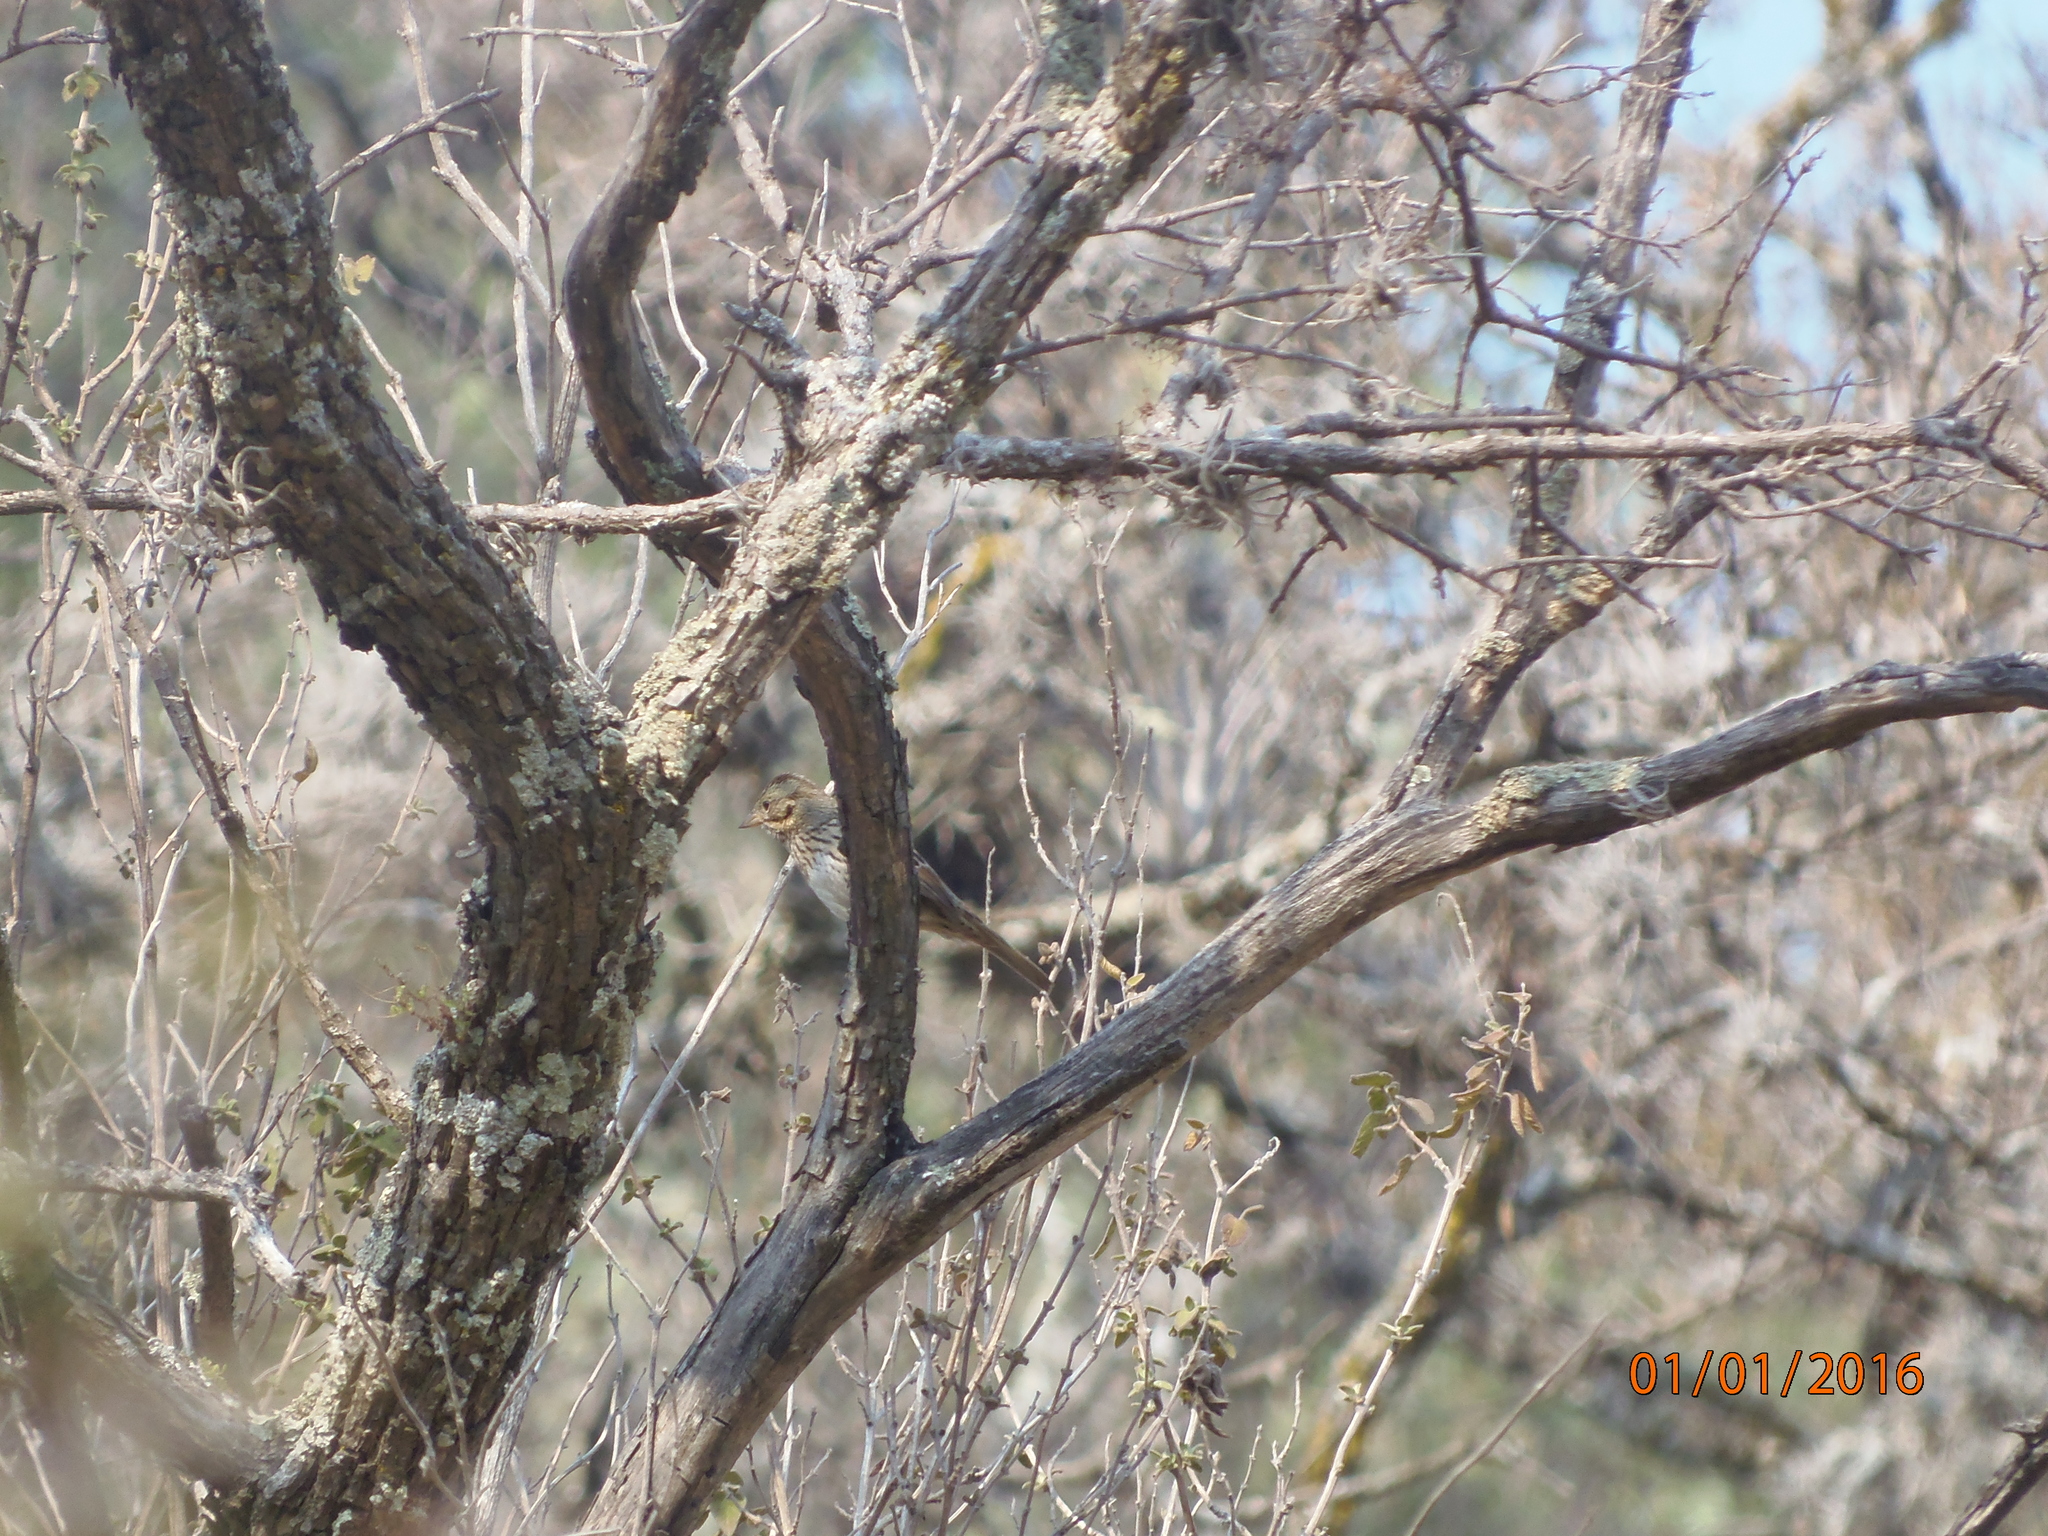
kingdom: Animalia
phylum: Chordata
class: Aves
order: Passeriformes
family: Passerellidae
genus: Melospiza
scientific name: Melospiza lincolnii
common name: Lincoln's sparrow
